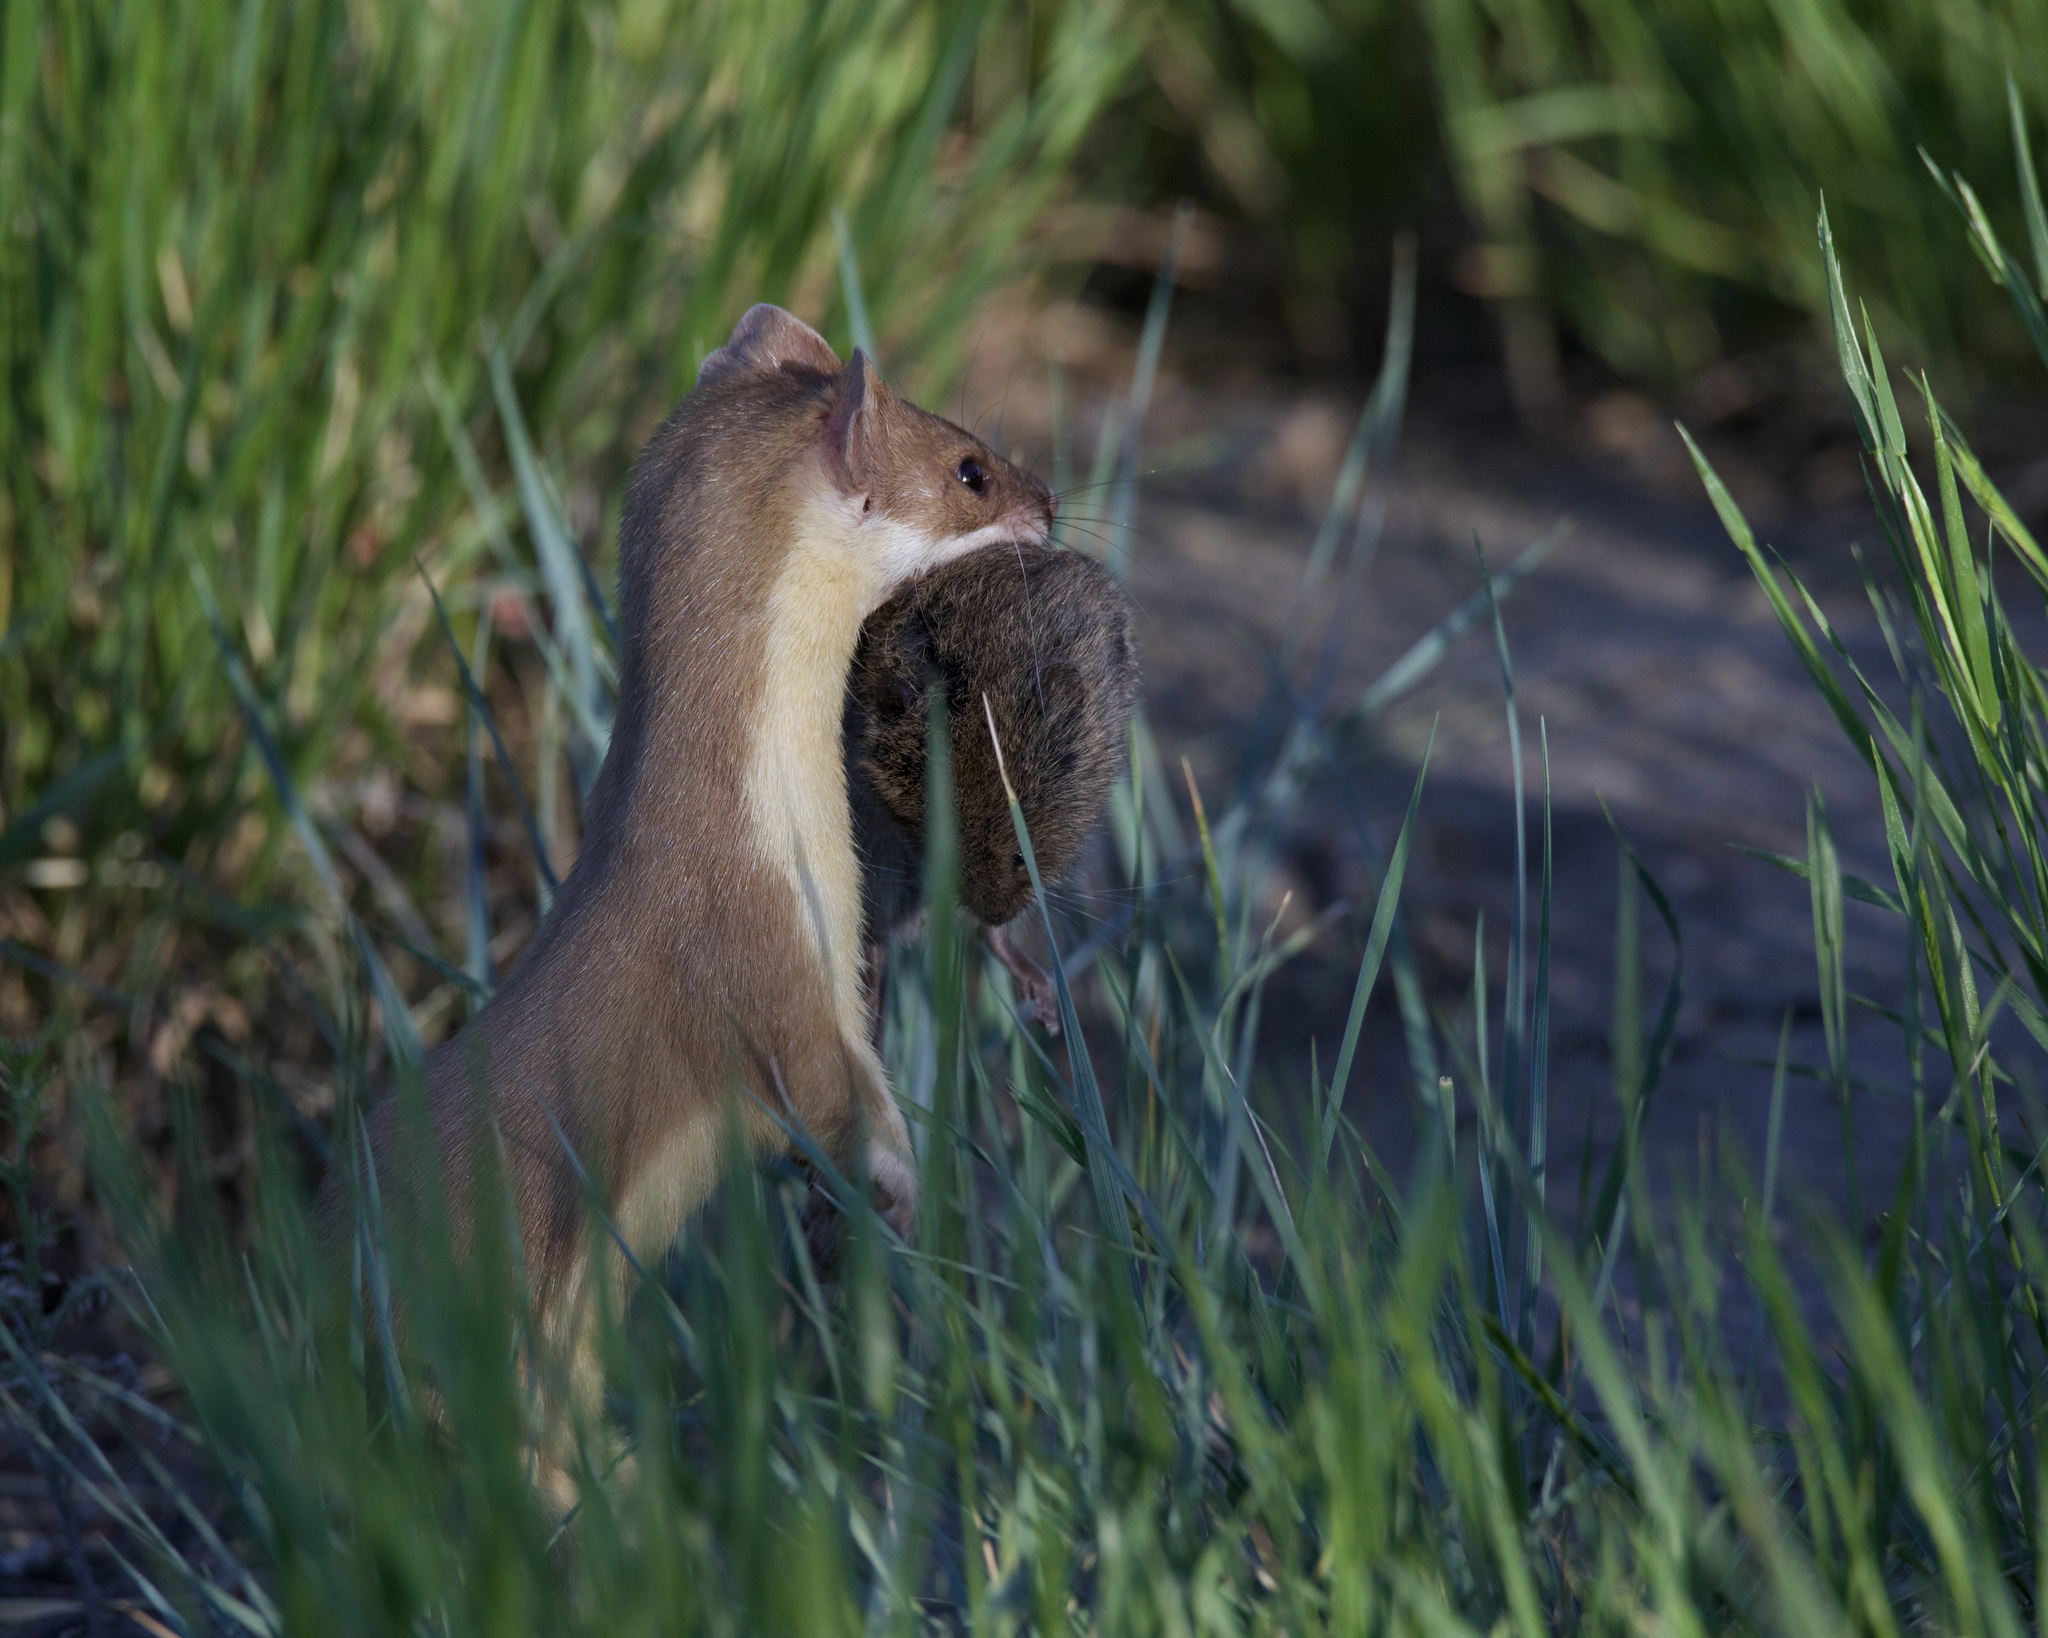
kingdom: Animalia
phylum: Chordata
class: Mammalia
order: Carnivora
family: Mustelidae
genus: Mustela
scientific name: Mustela
